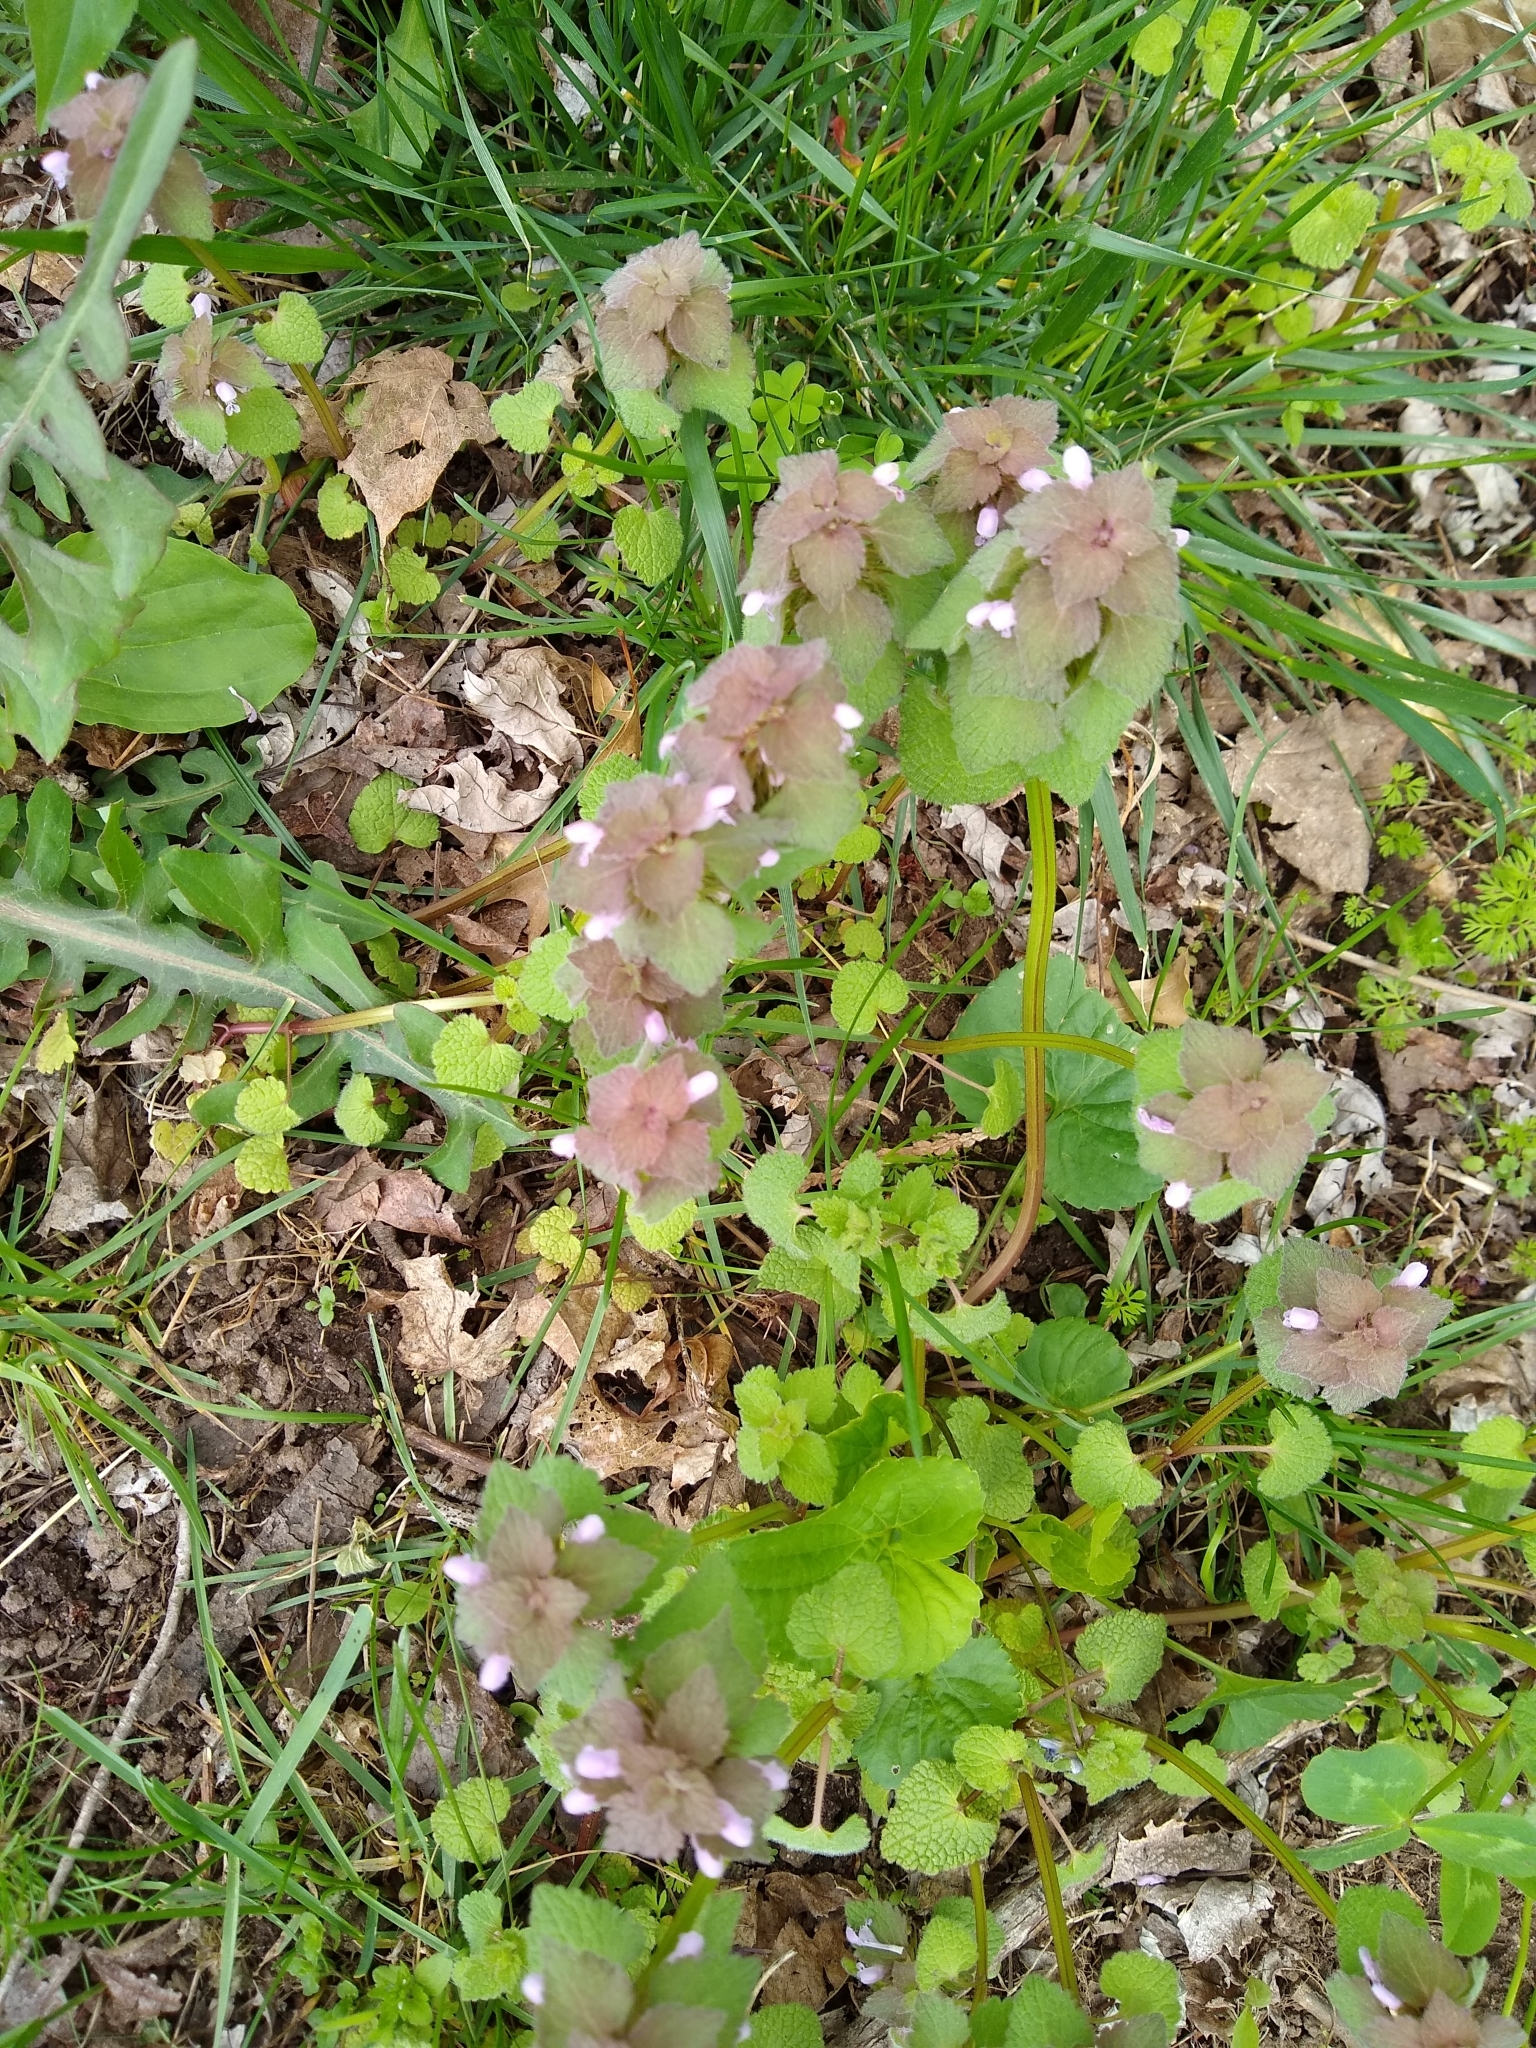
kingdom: Plantae
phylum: Tracheophyta
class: Magnoliopsida
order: Lamiales
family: Lamiaceae
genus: Lamium
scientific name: Lamium purpureum
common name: Red dead-nettle
